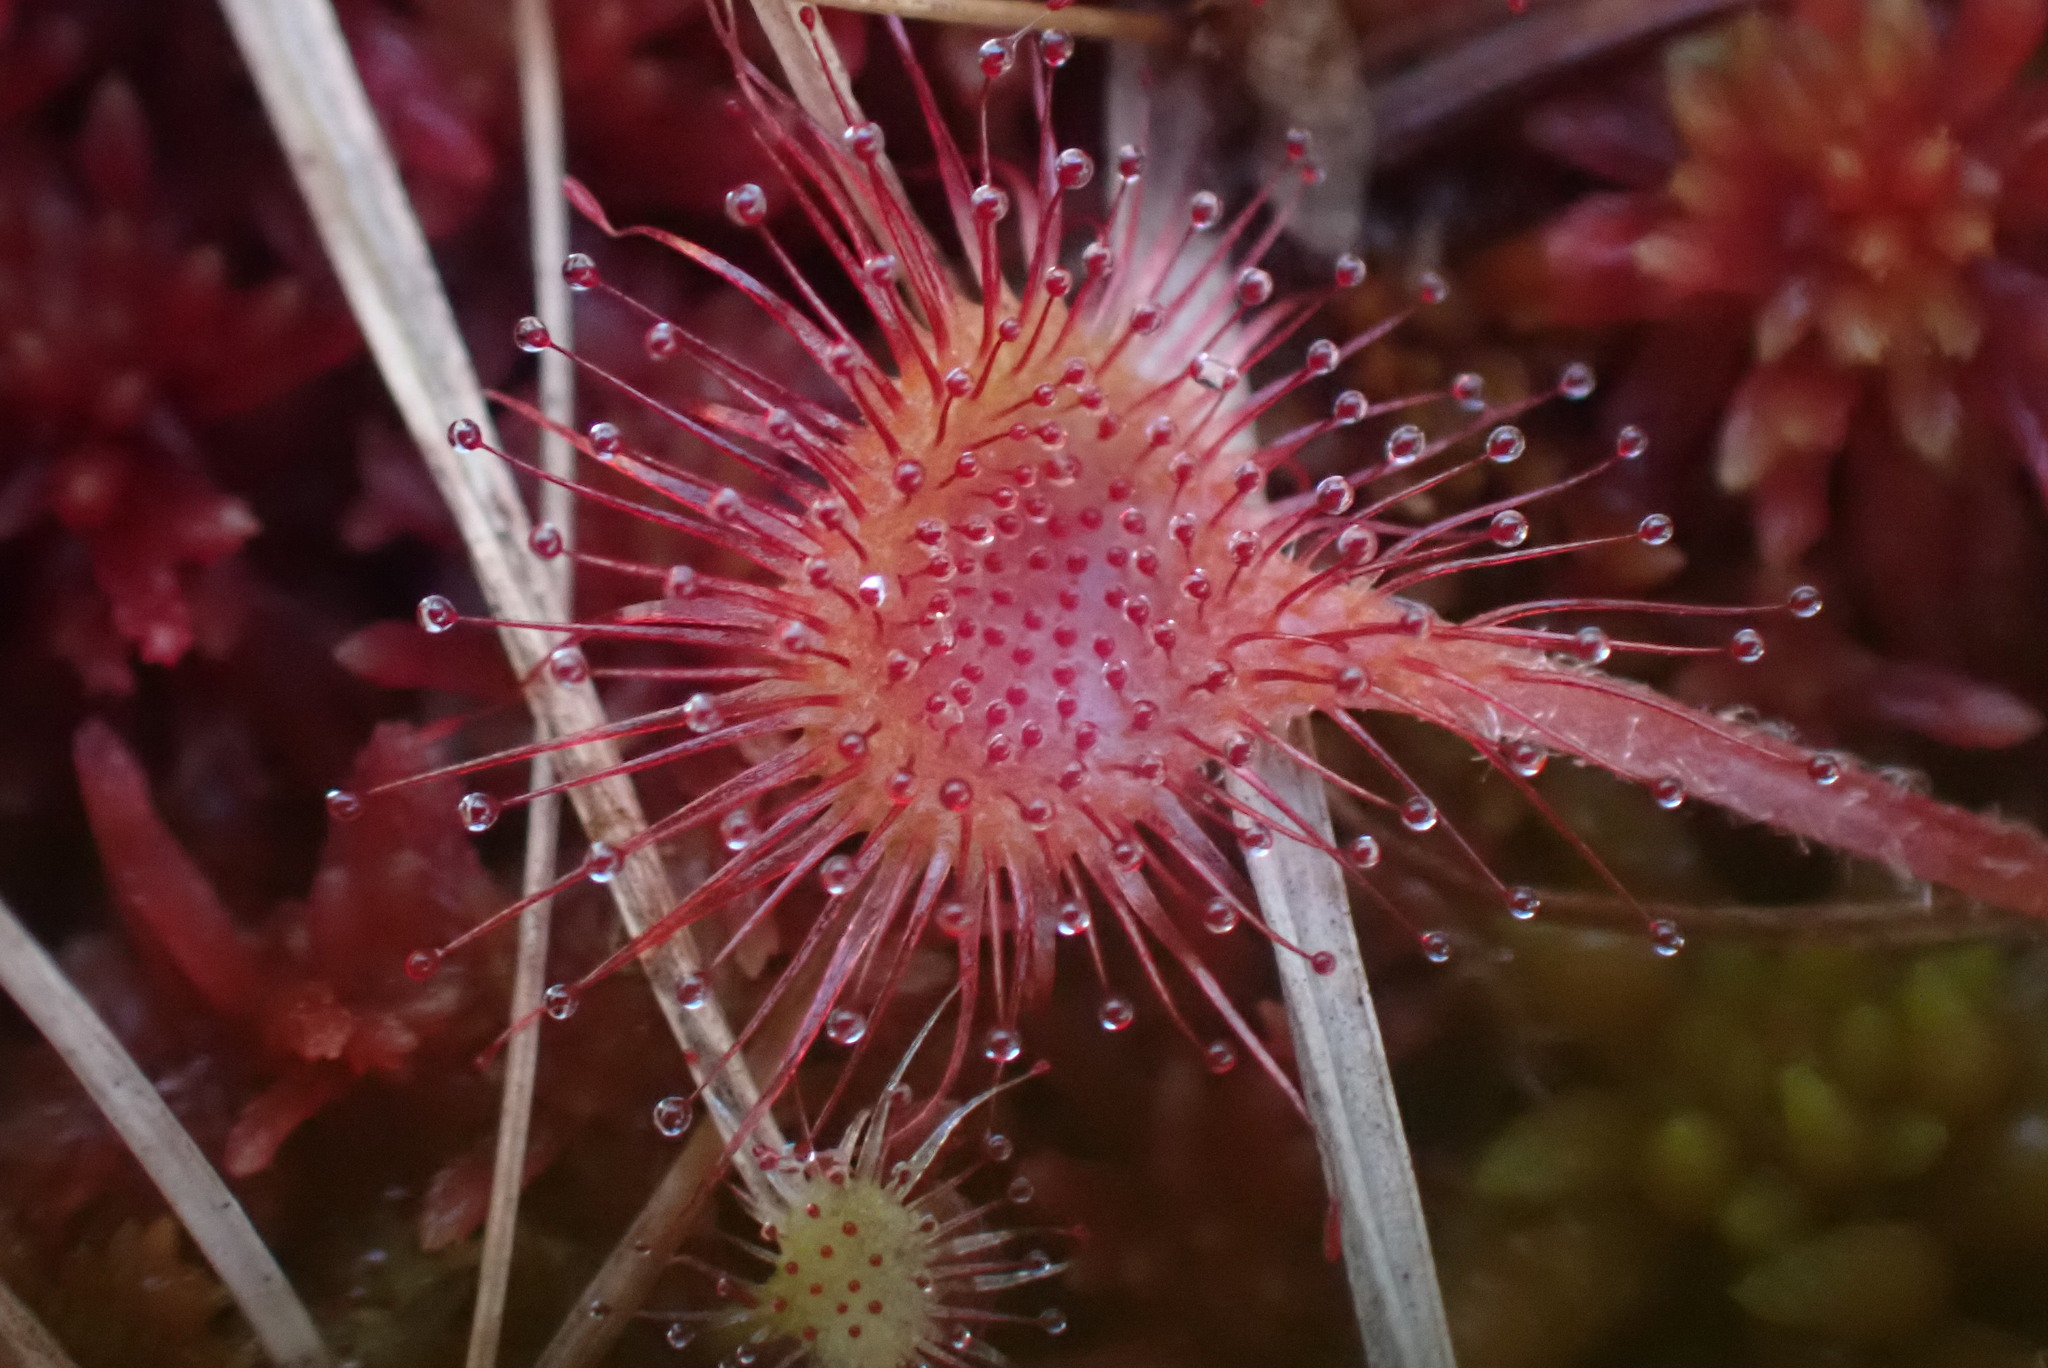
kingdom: Plantae
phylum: Tracheophyta
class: Magnoliopsida
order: Caryophyllales
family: Droseraceae
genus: Drosera
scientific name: Drosera rotundifolia
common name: Round-leaved sundew
